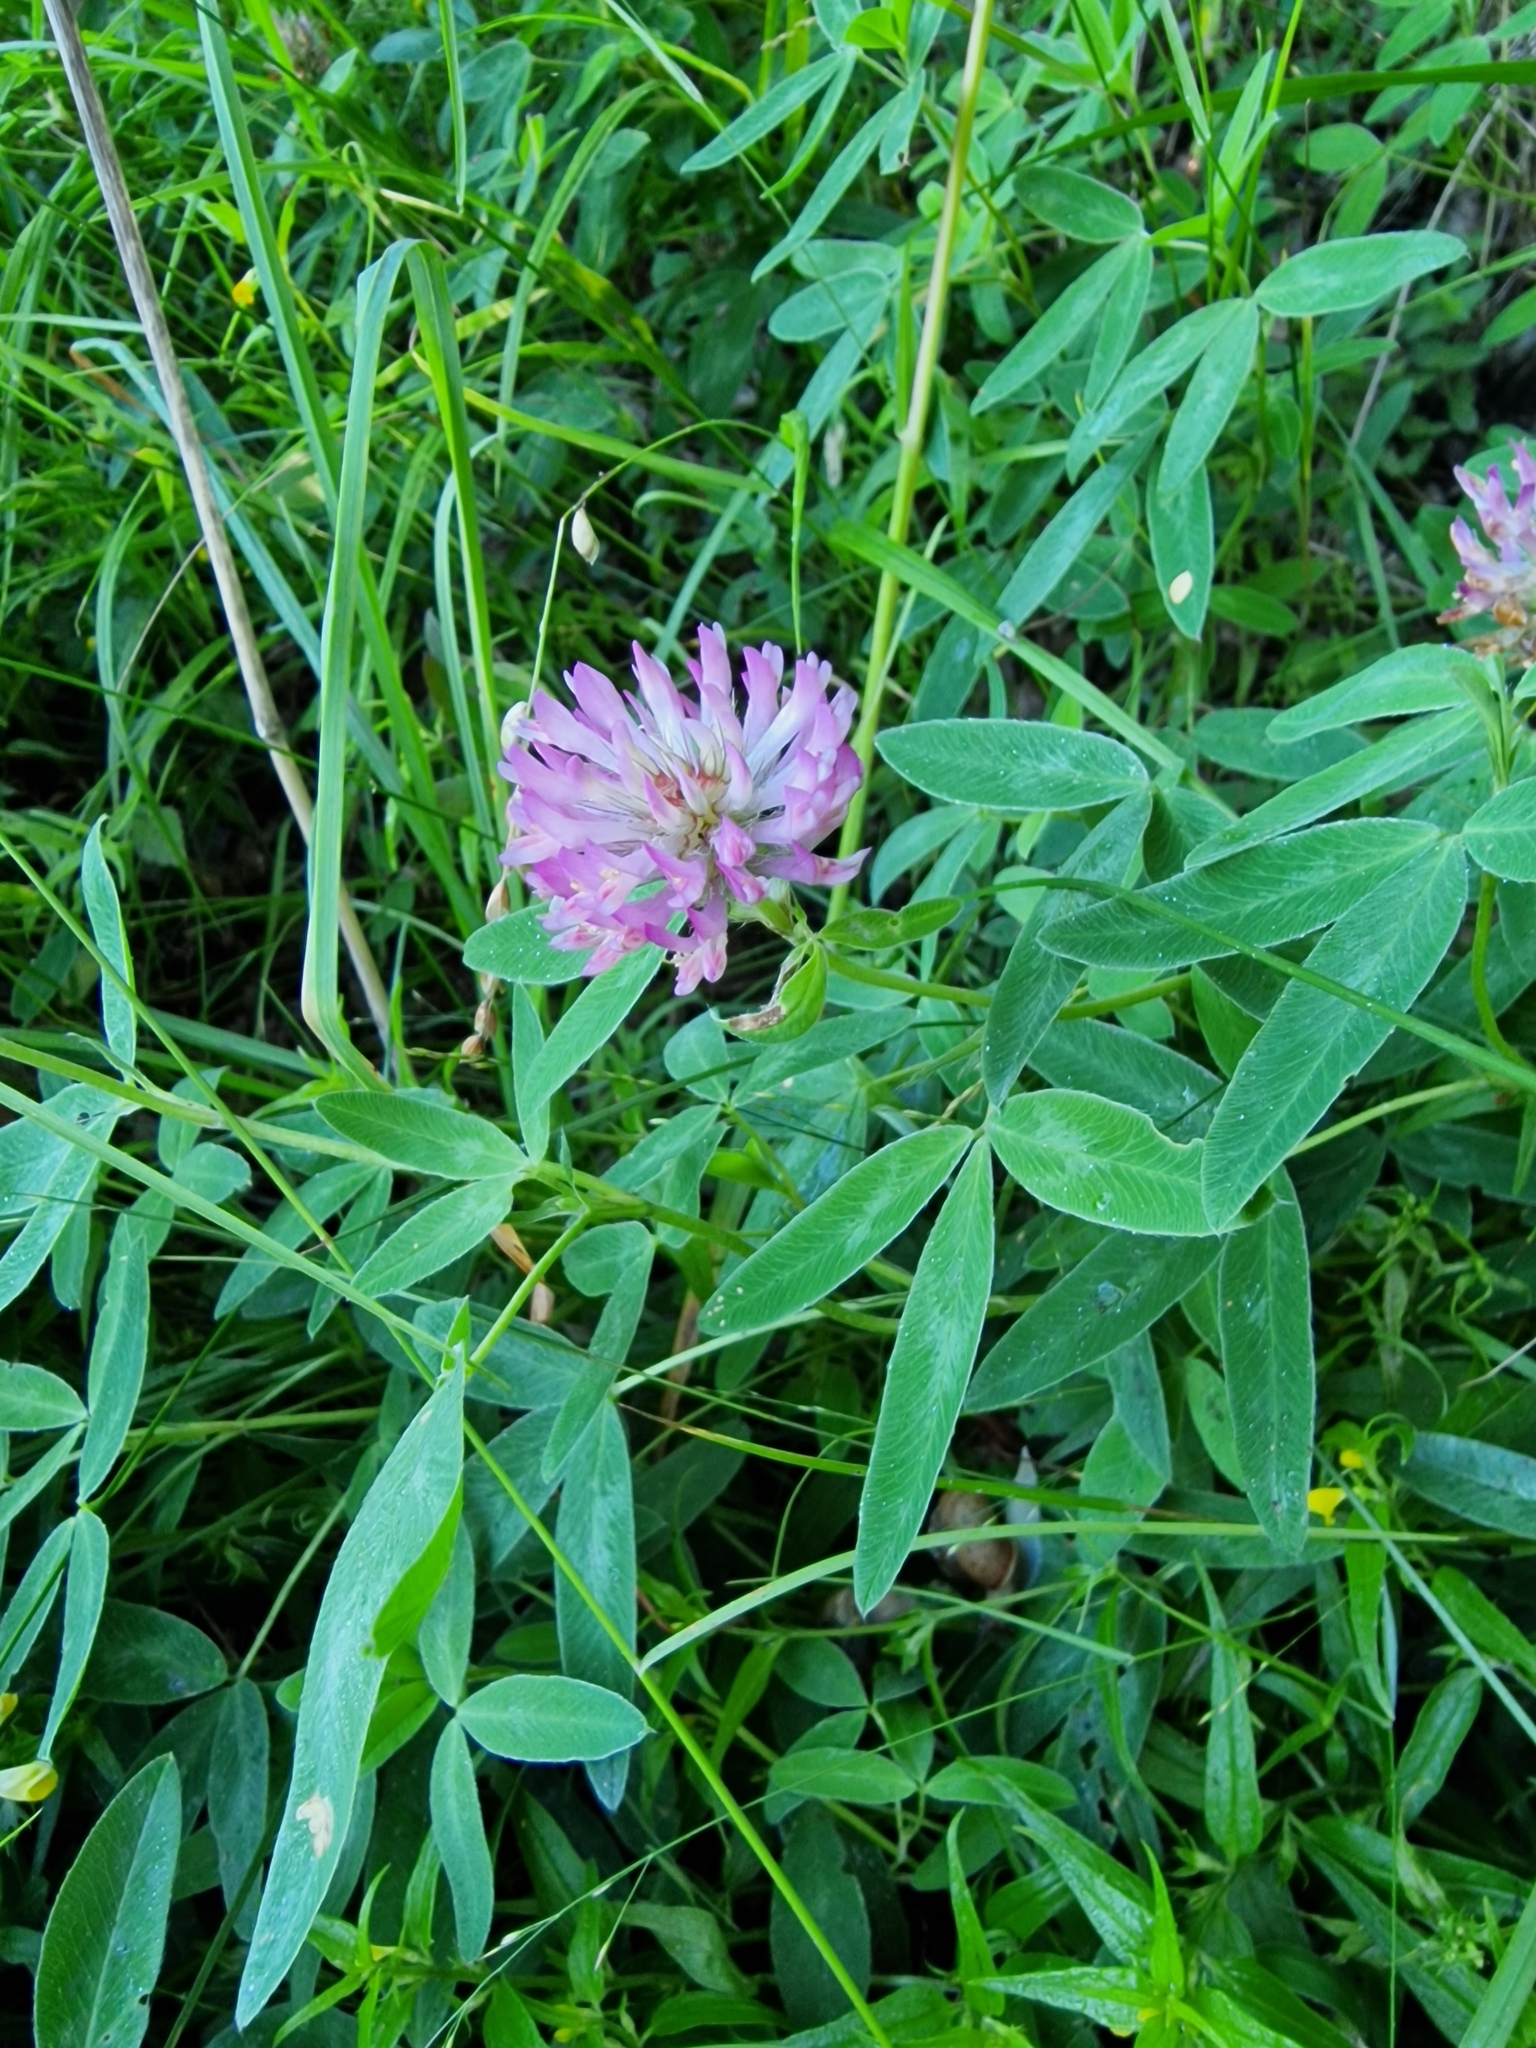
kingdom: Plantae
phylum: Tracheophyta
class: Magnoliopsida
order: Fabales
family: Fabaceae
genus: Trifolium
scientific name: Trifolium medium
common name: Zigzag clover
